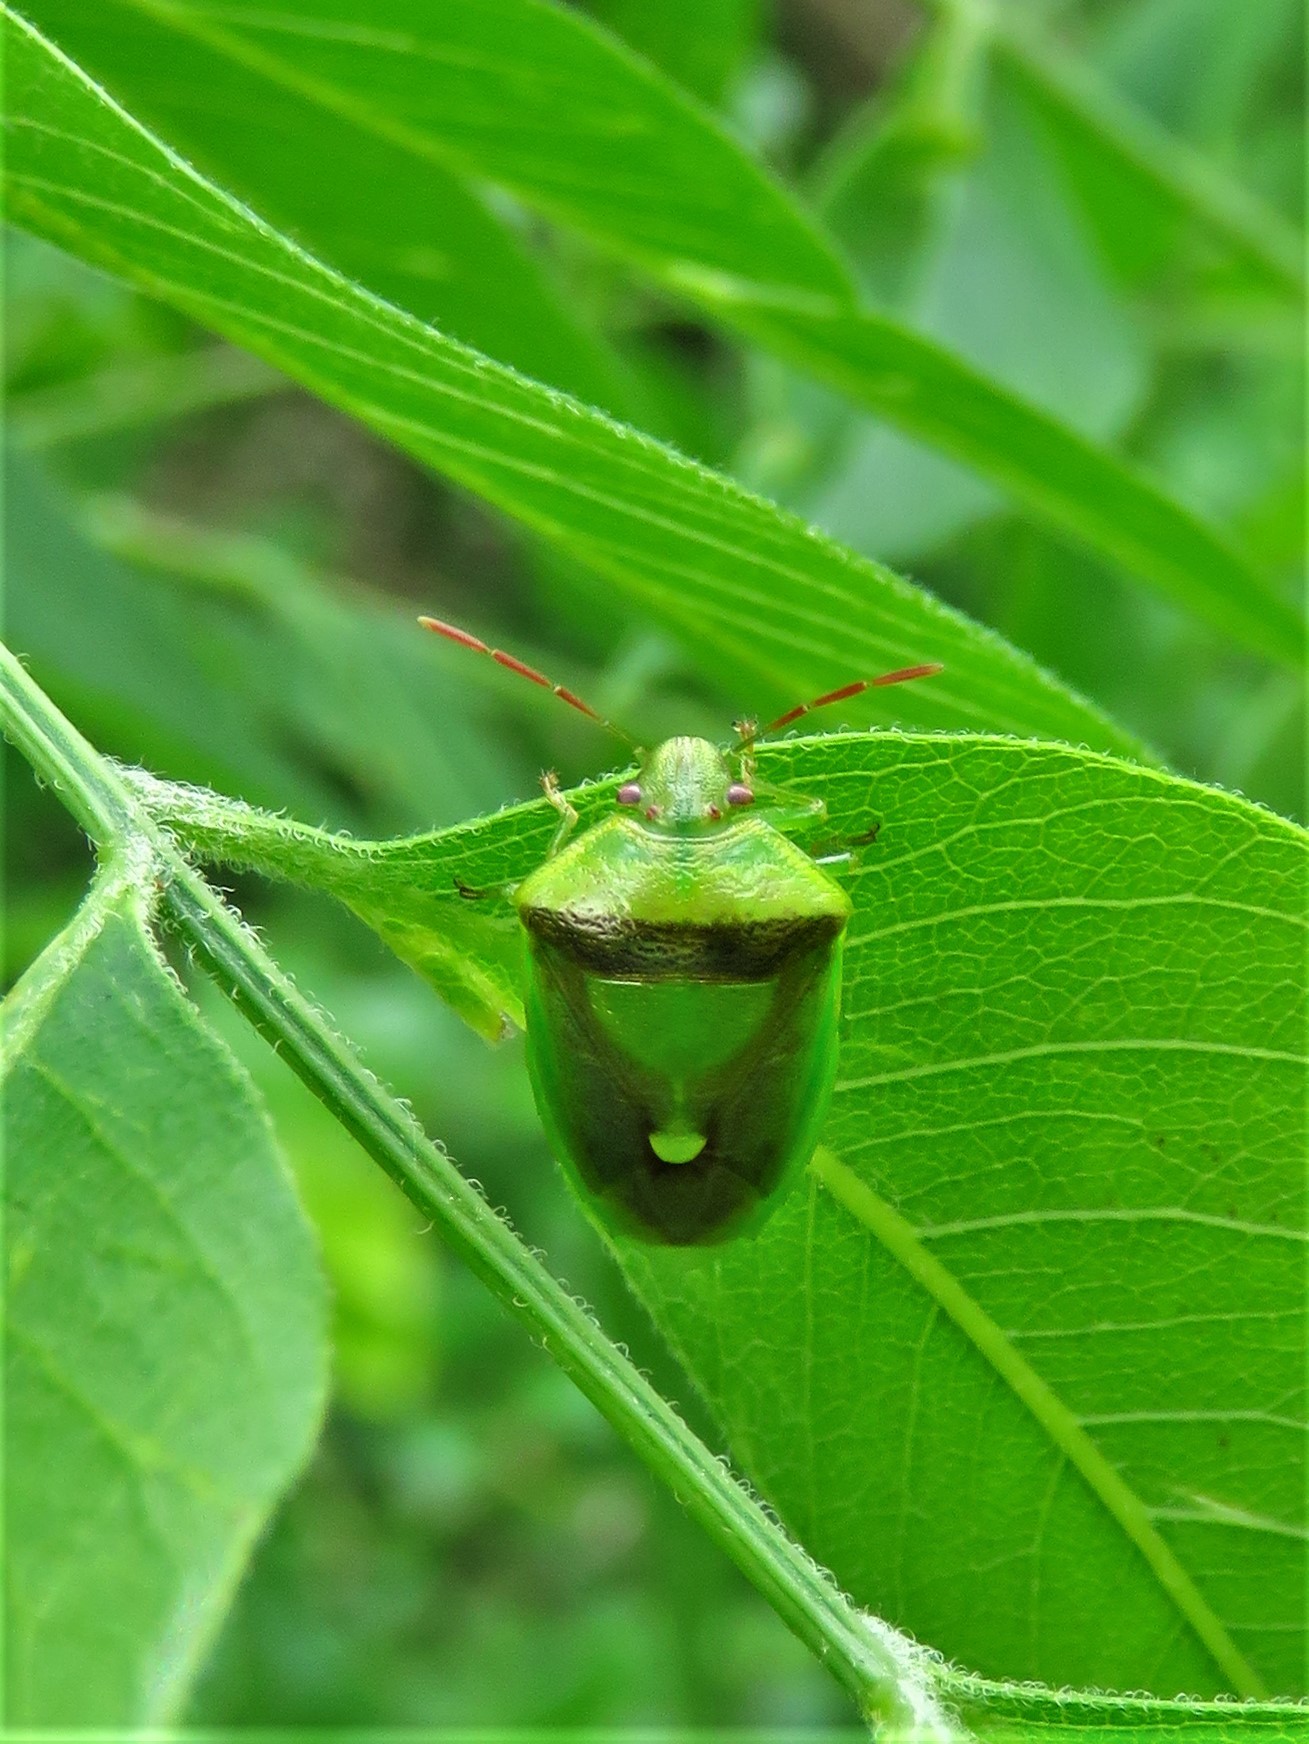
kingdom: Animalia
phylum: Arthropoda
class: Insecta
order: Hemiptera
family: Pentatomidae
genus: Banasa
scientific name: Banasa dimidiata
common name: Green burgundy stink bug
